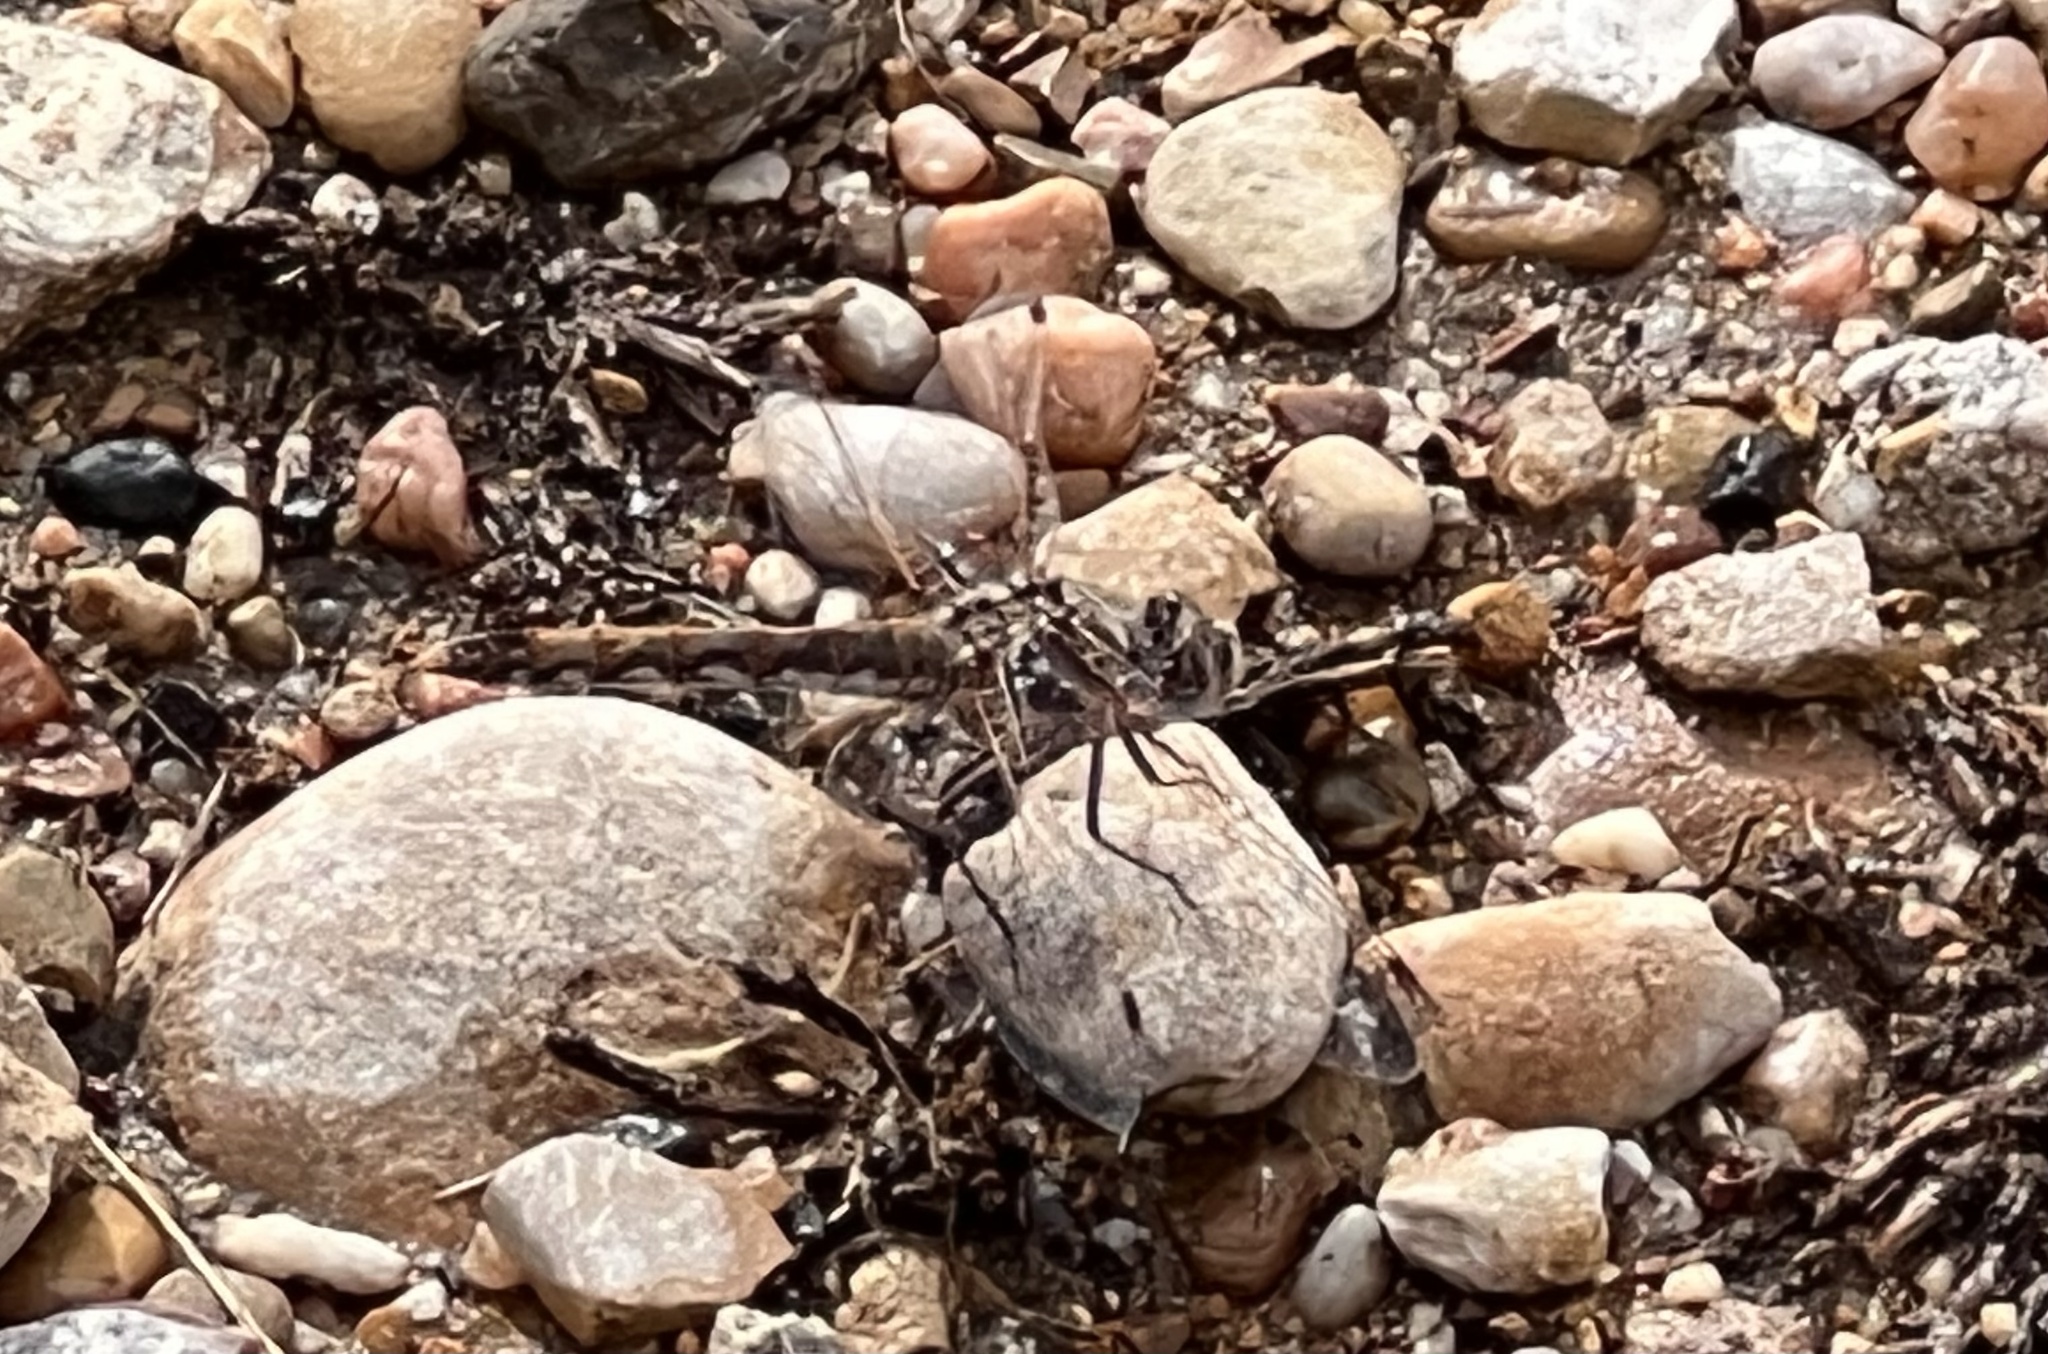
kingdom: Animalia
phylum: Arthropoda
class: Insecta
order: Odonata
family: Libellulidae
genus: Sympetrum
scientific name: Sympetrum corruptum
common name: Variegated meadowhawk
